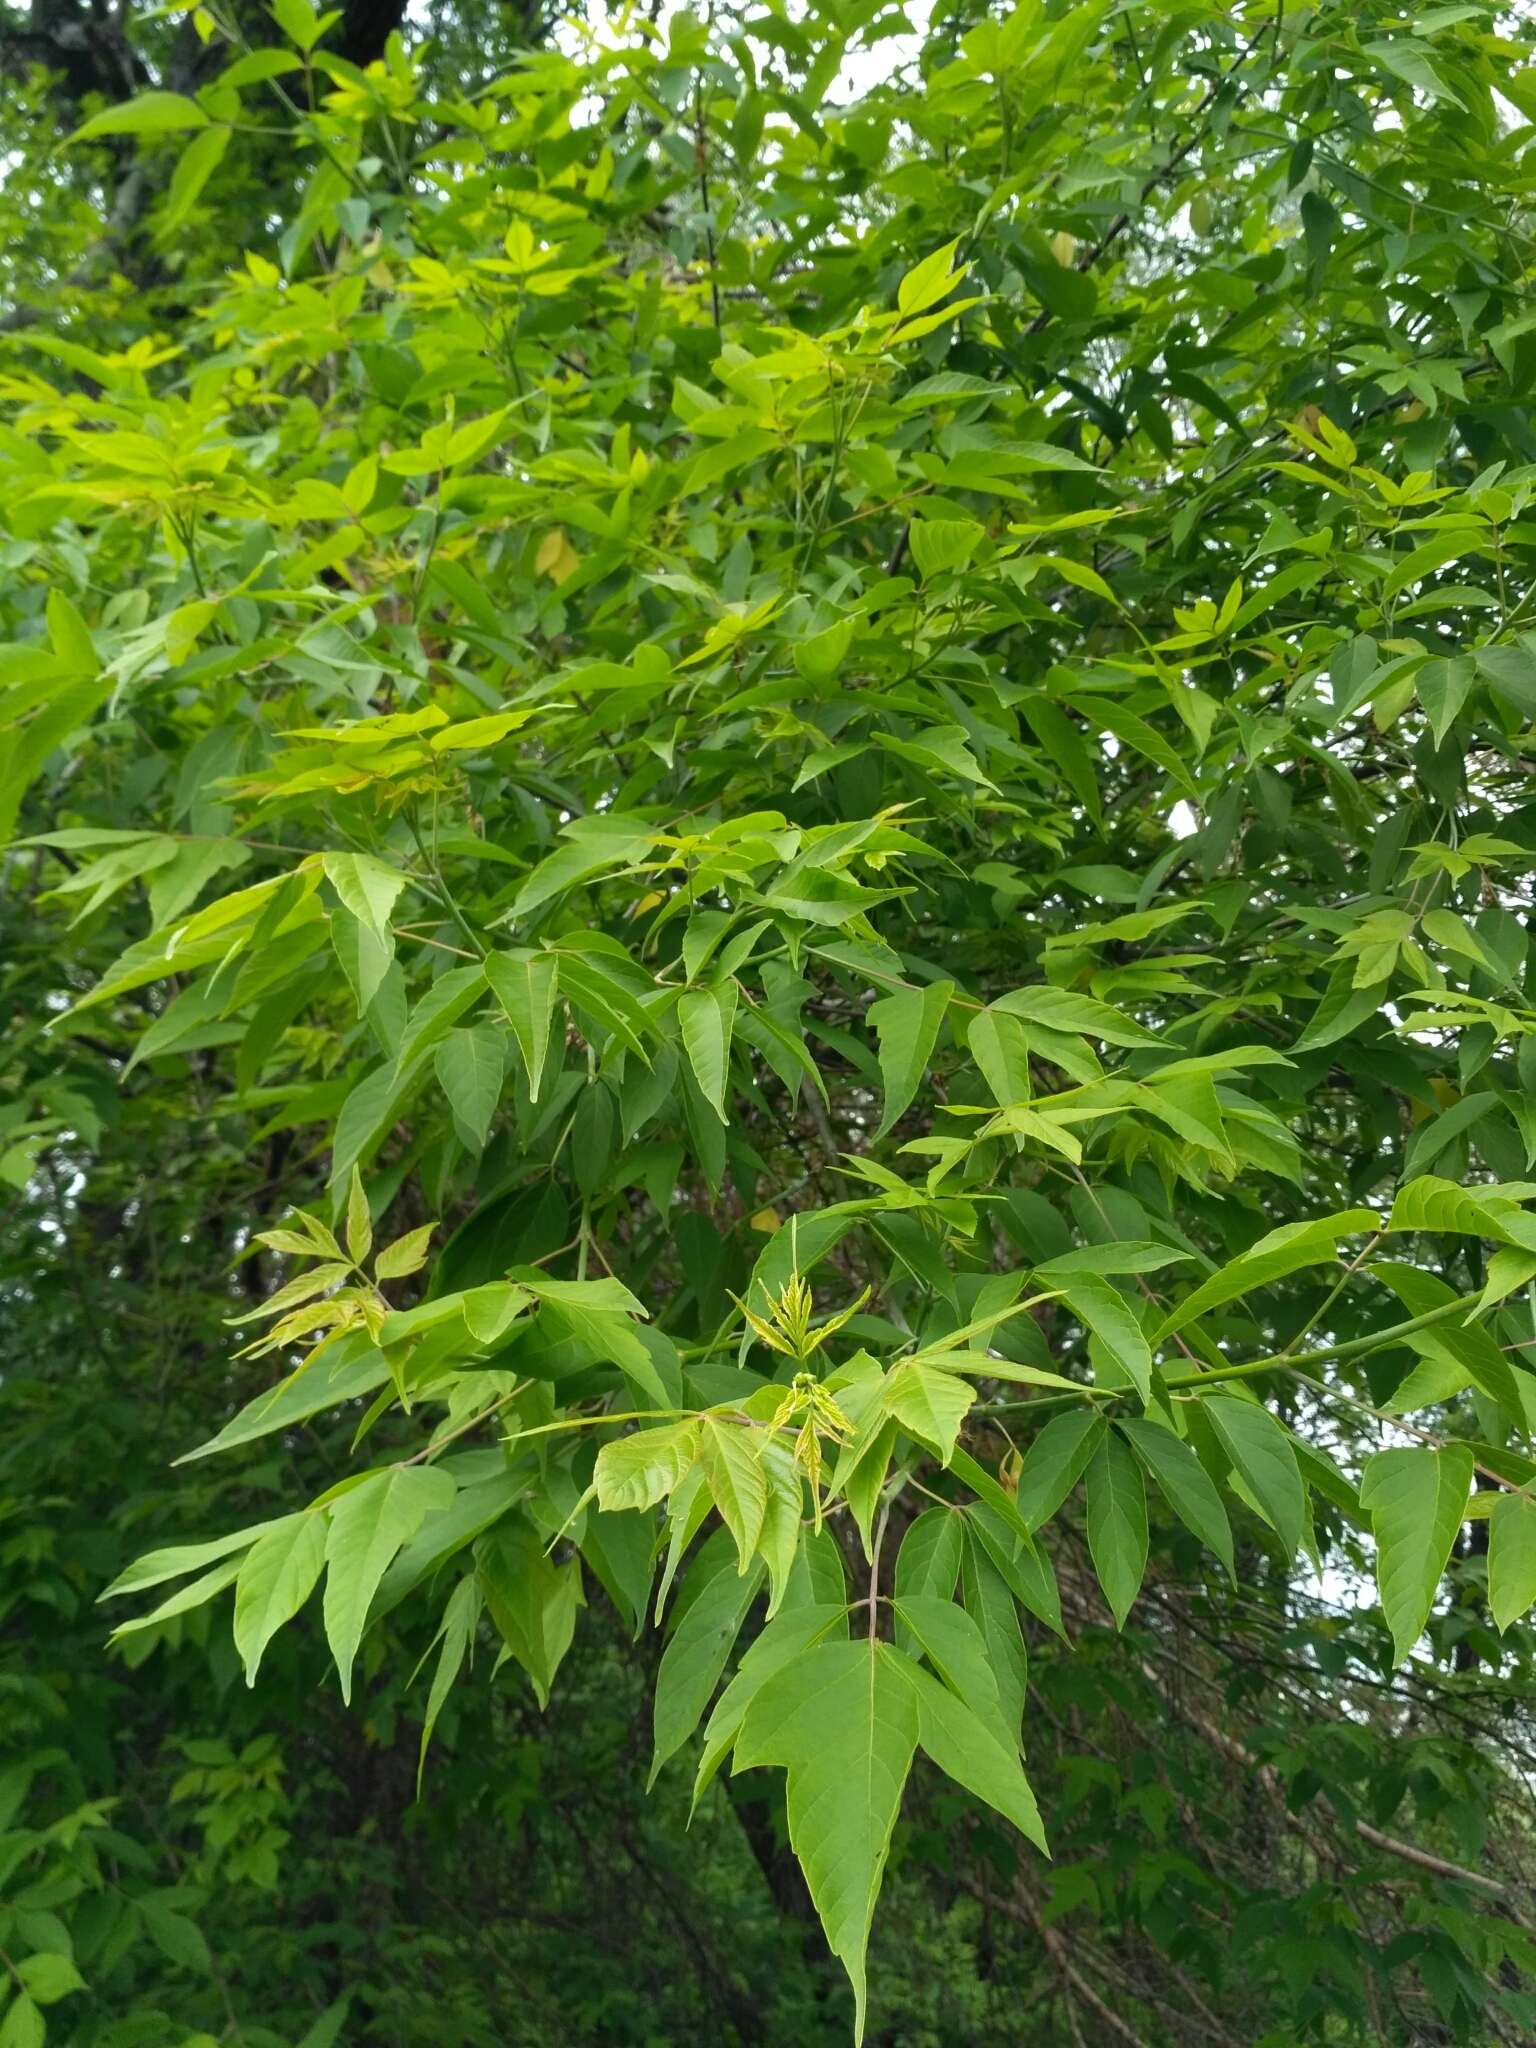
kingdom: Plantae
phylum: Tracheophyta
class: Magnoliopsida
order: Sapindales
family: Sapindaceae
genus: Acer
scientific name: Acer negundo
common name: Ashleaf maple
